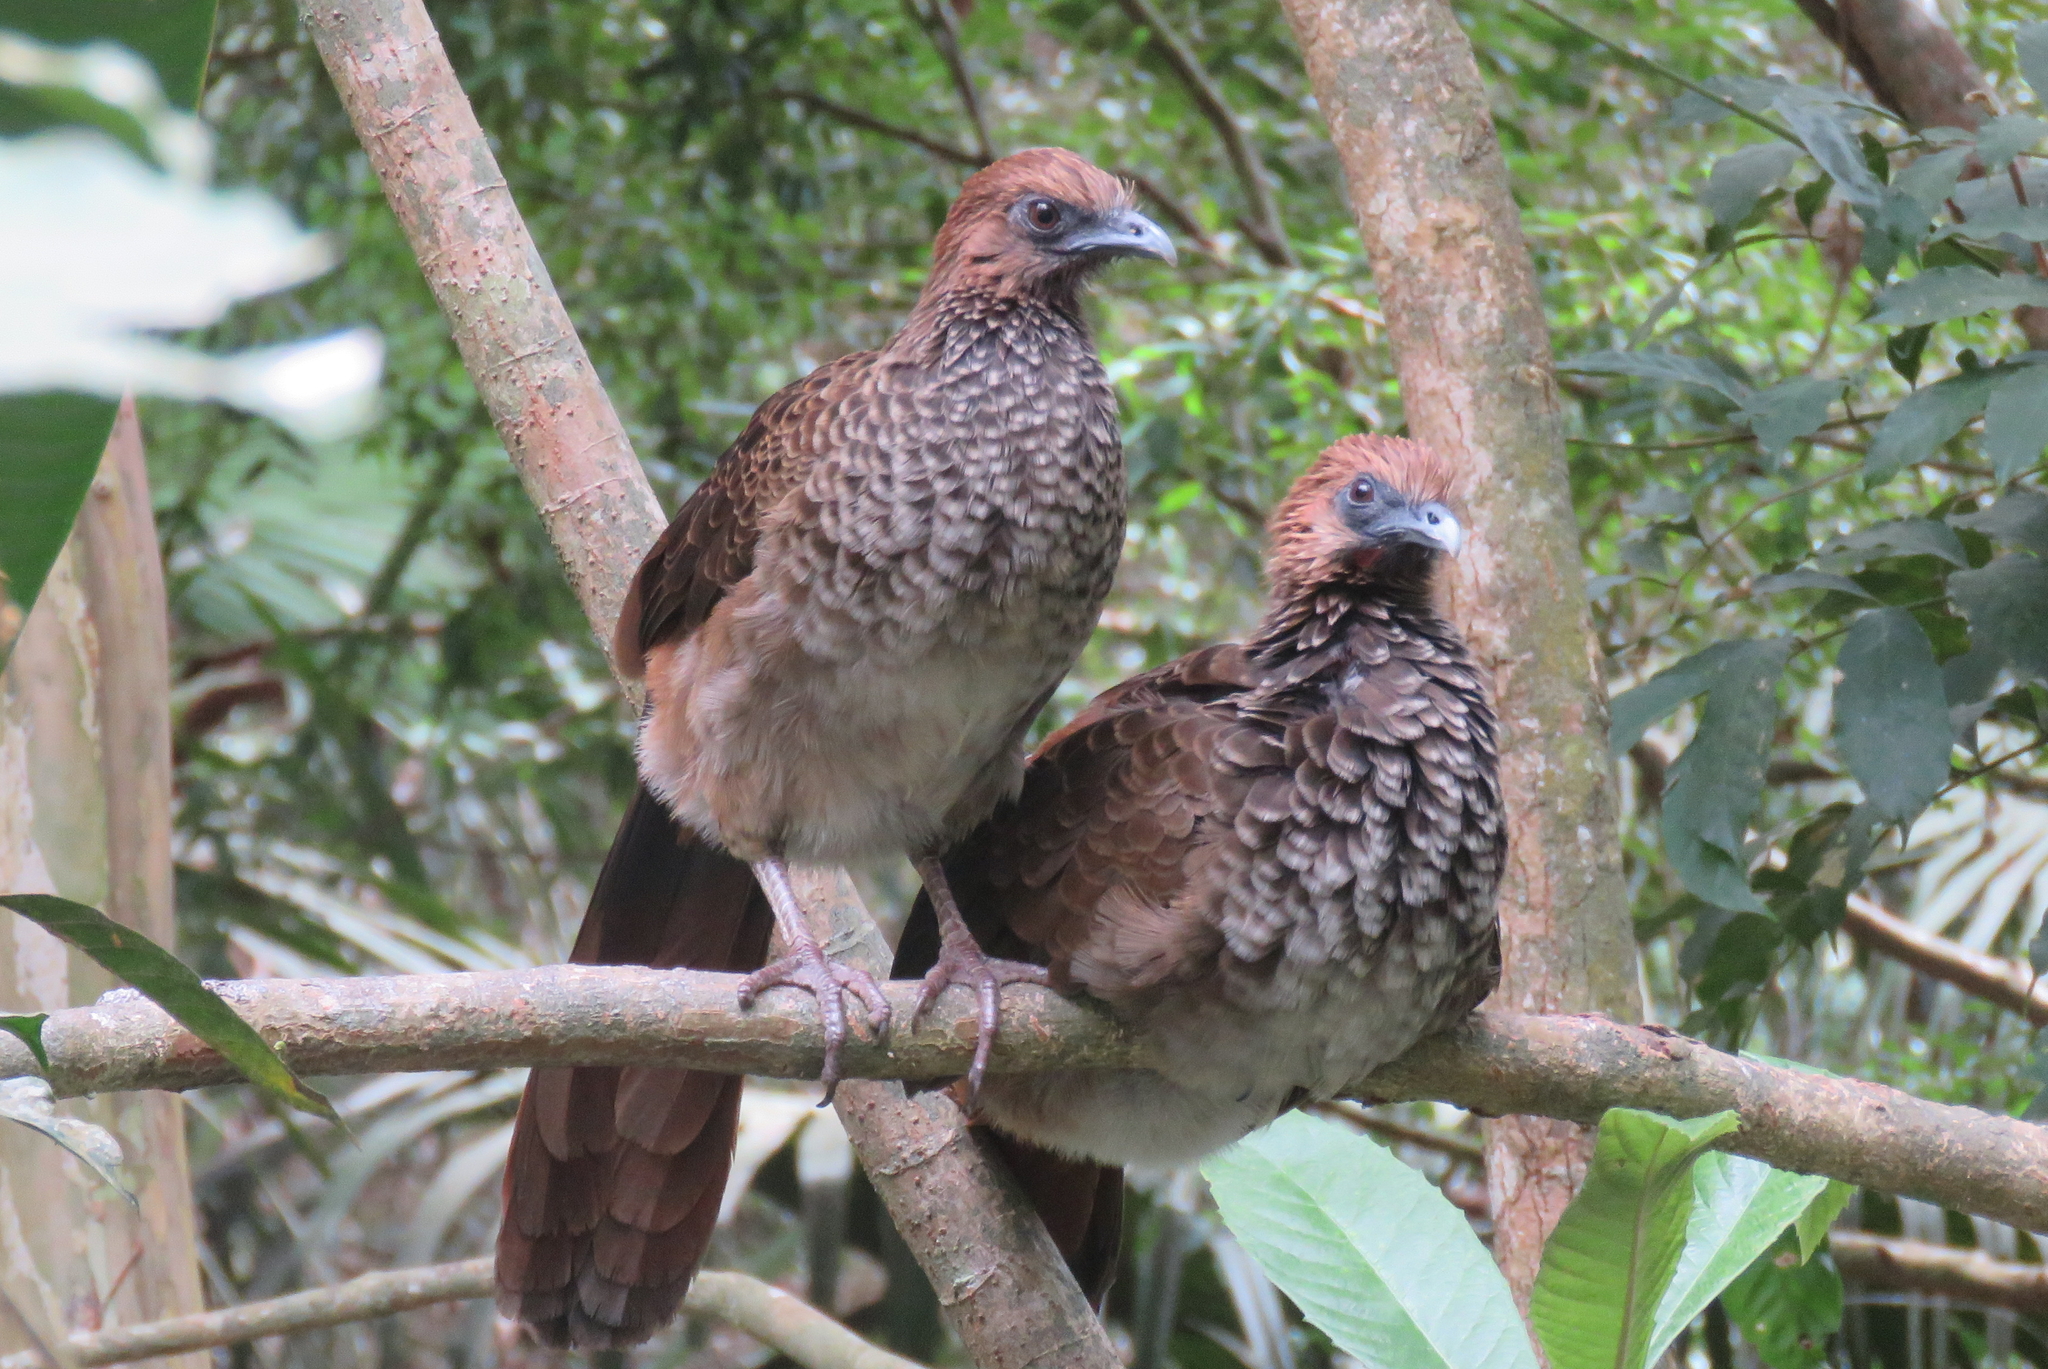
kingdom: Animalia
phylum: Chordata
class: Aves
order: Galliformes
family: Cracidae
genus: Ortalis
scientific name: Ortalis araucuan
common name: East brazilian chachalaca
